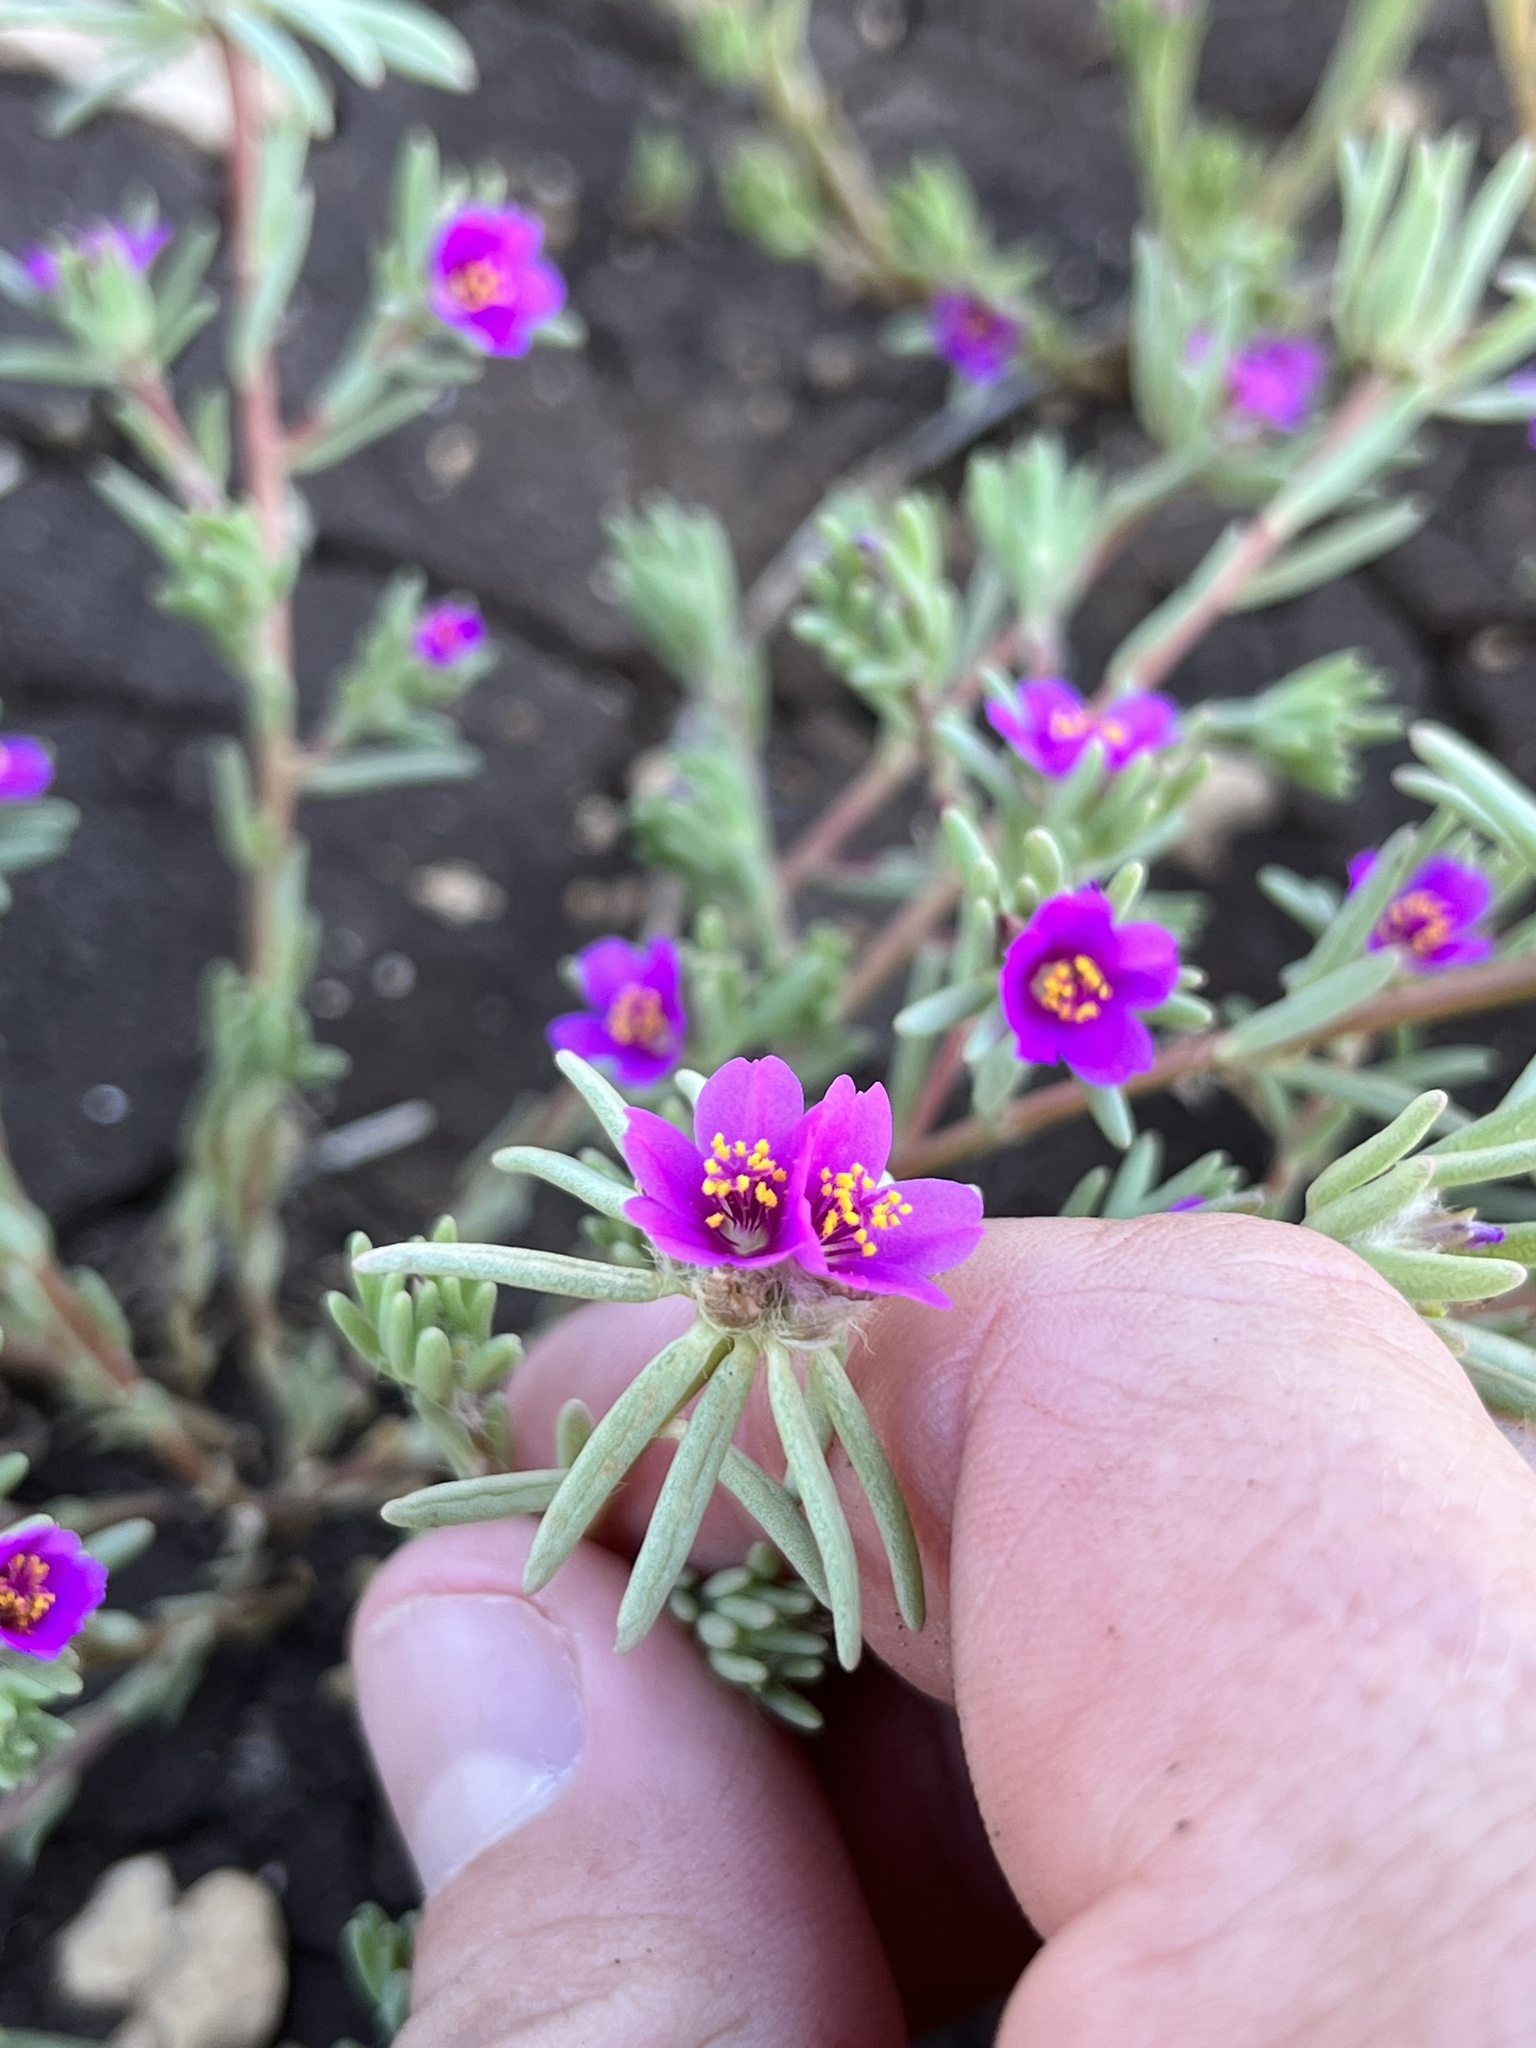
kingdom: Plantae
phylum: Tracheophyta
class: Magnoliopsida
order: Caryophyllales
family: Portulacaceae
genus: Portulaca
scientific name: Portulaca pilosa
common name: Kiss me quick
